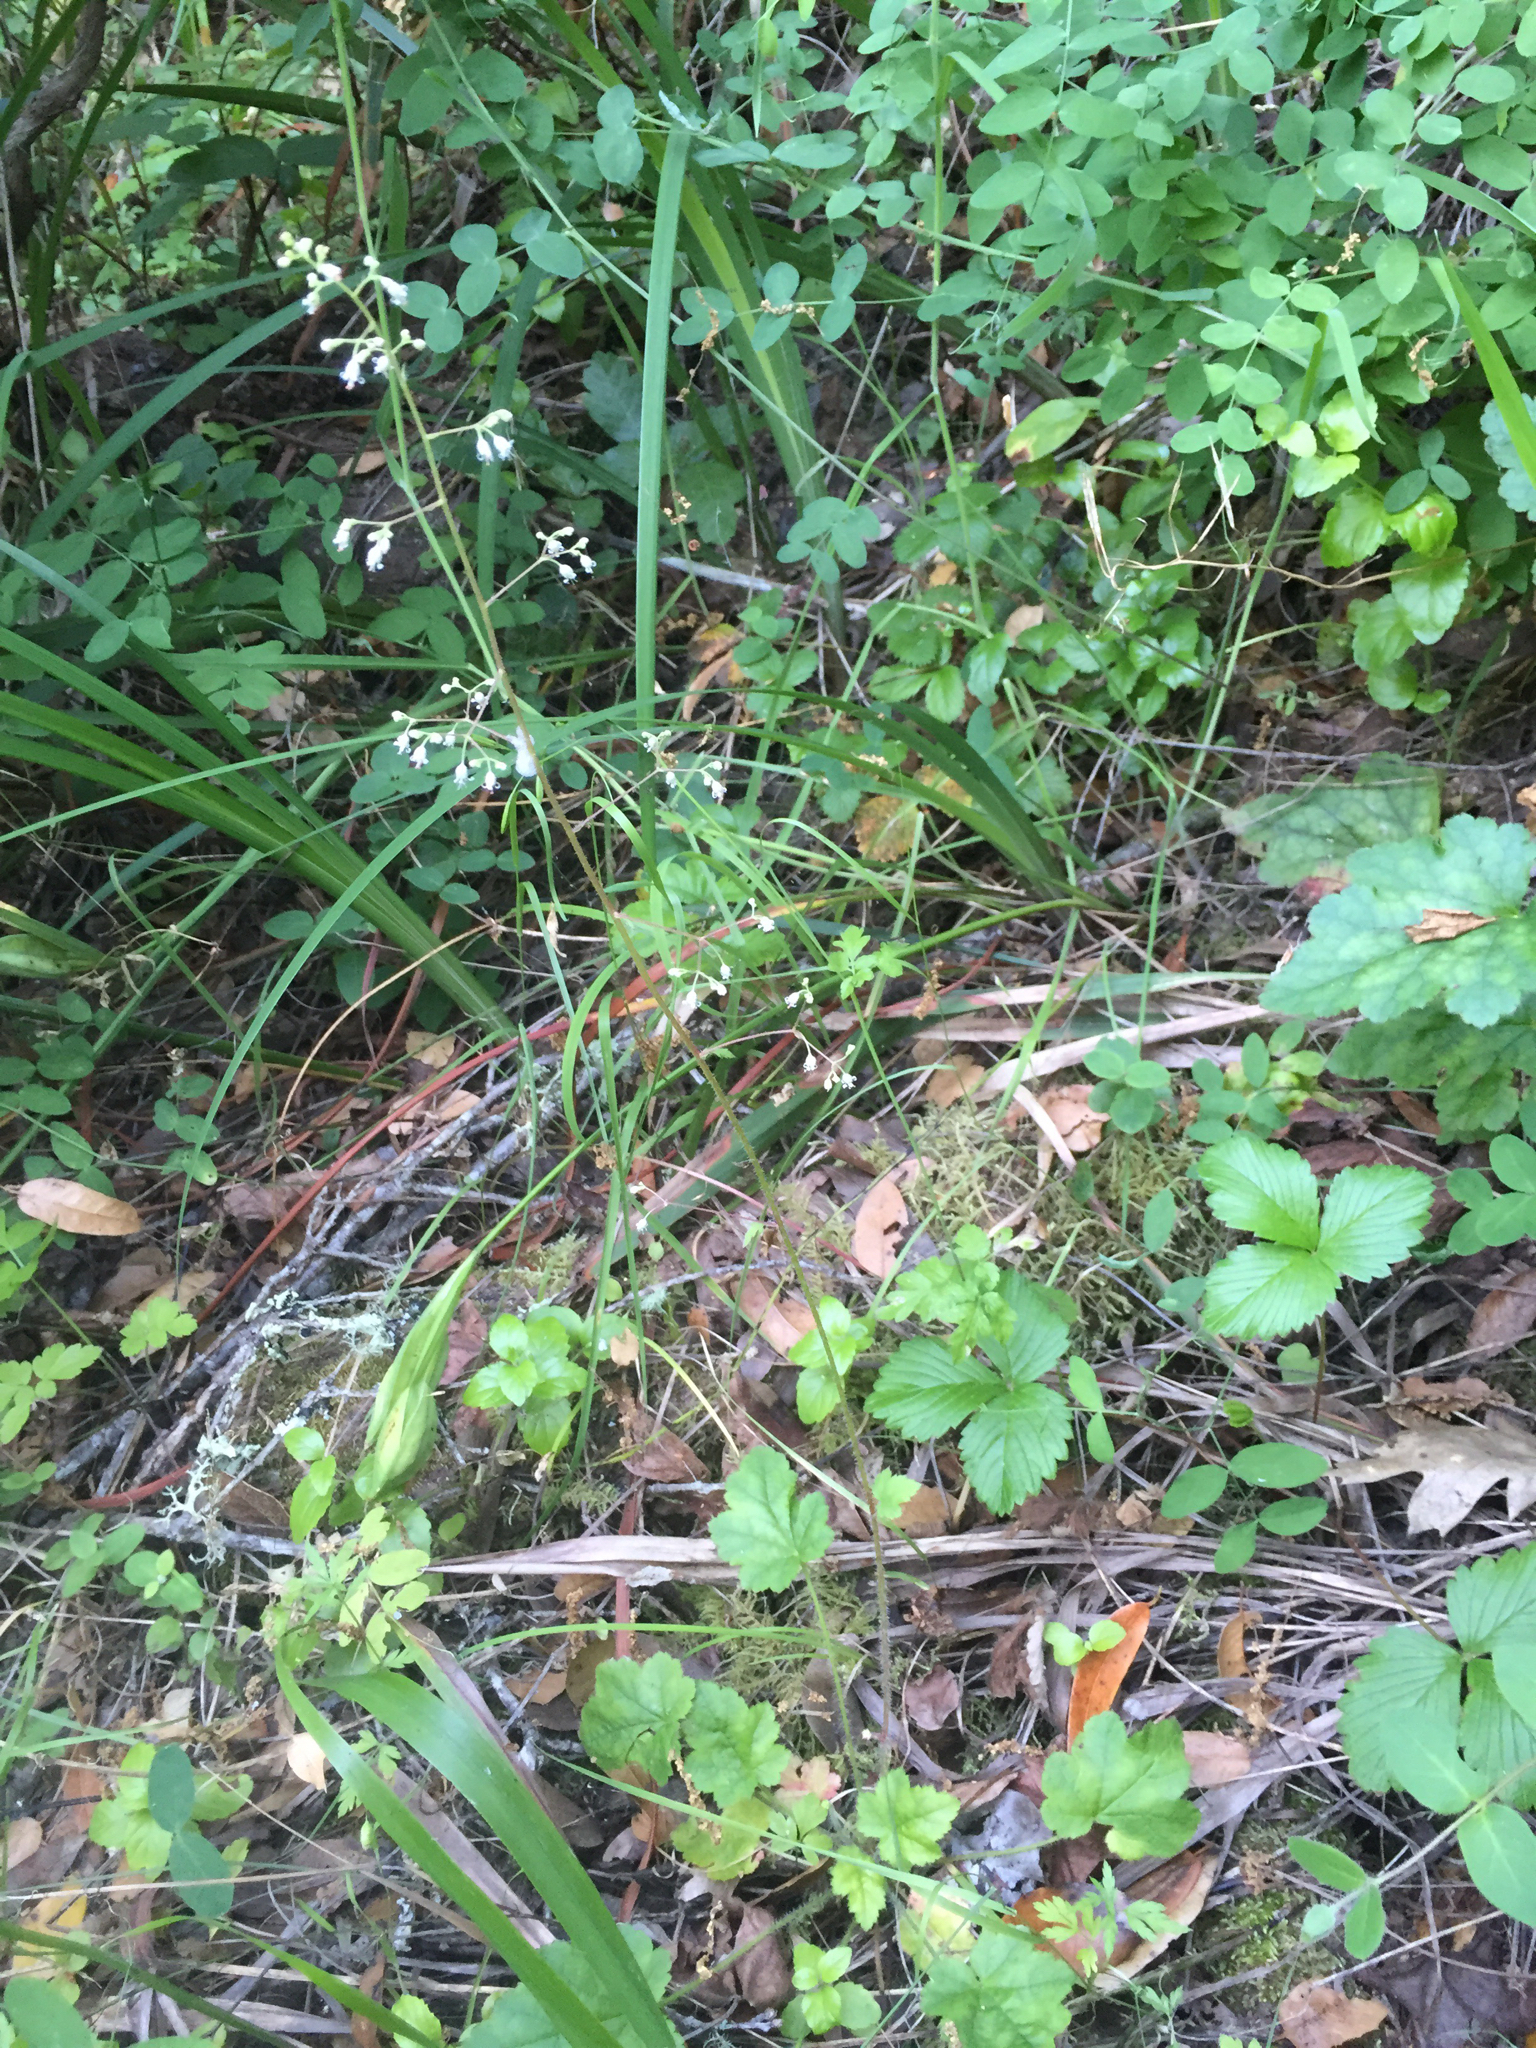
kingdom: Plantae
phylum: Tracheophyta
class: Magnoliopsida
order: Saxifragales
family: Saxifragaceae
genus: Heuchera
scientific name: Heuchera micrantha
